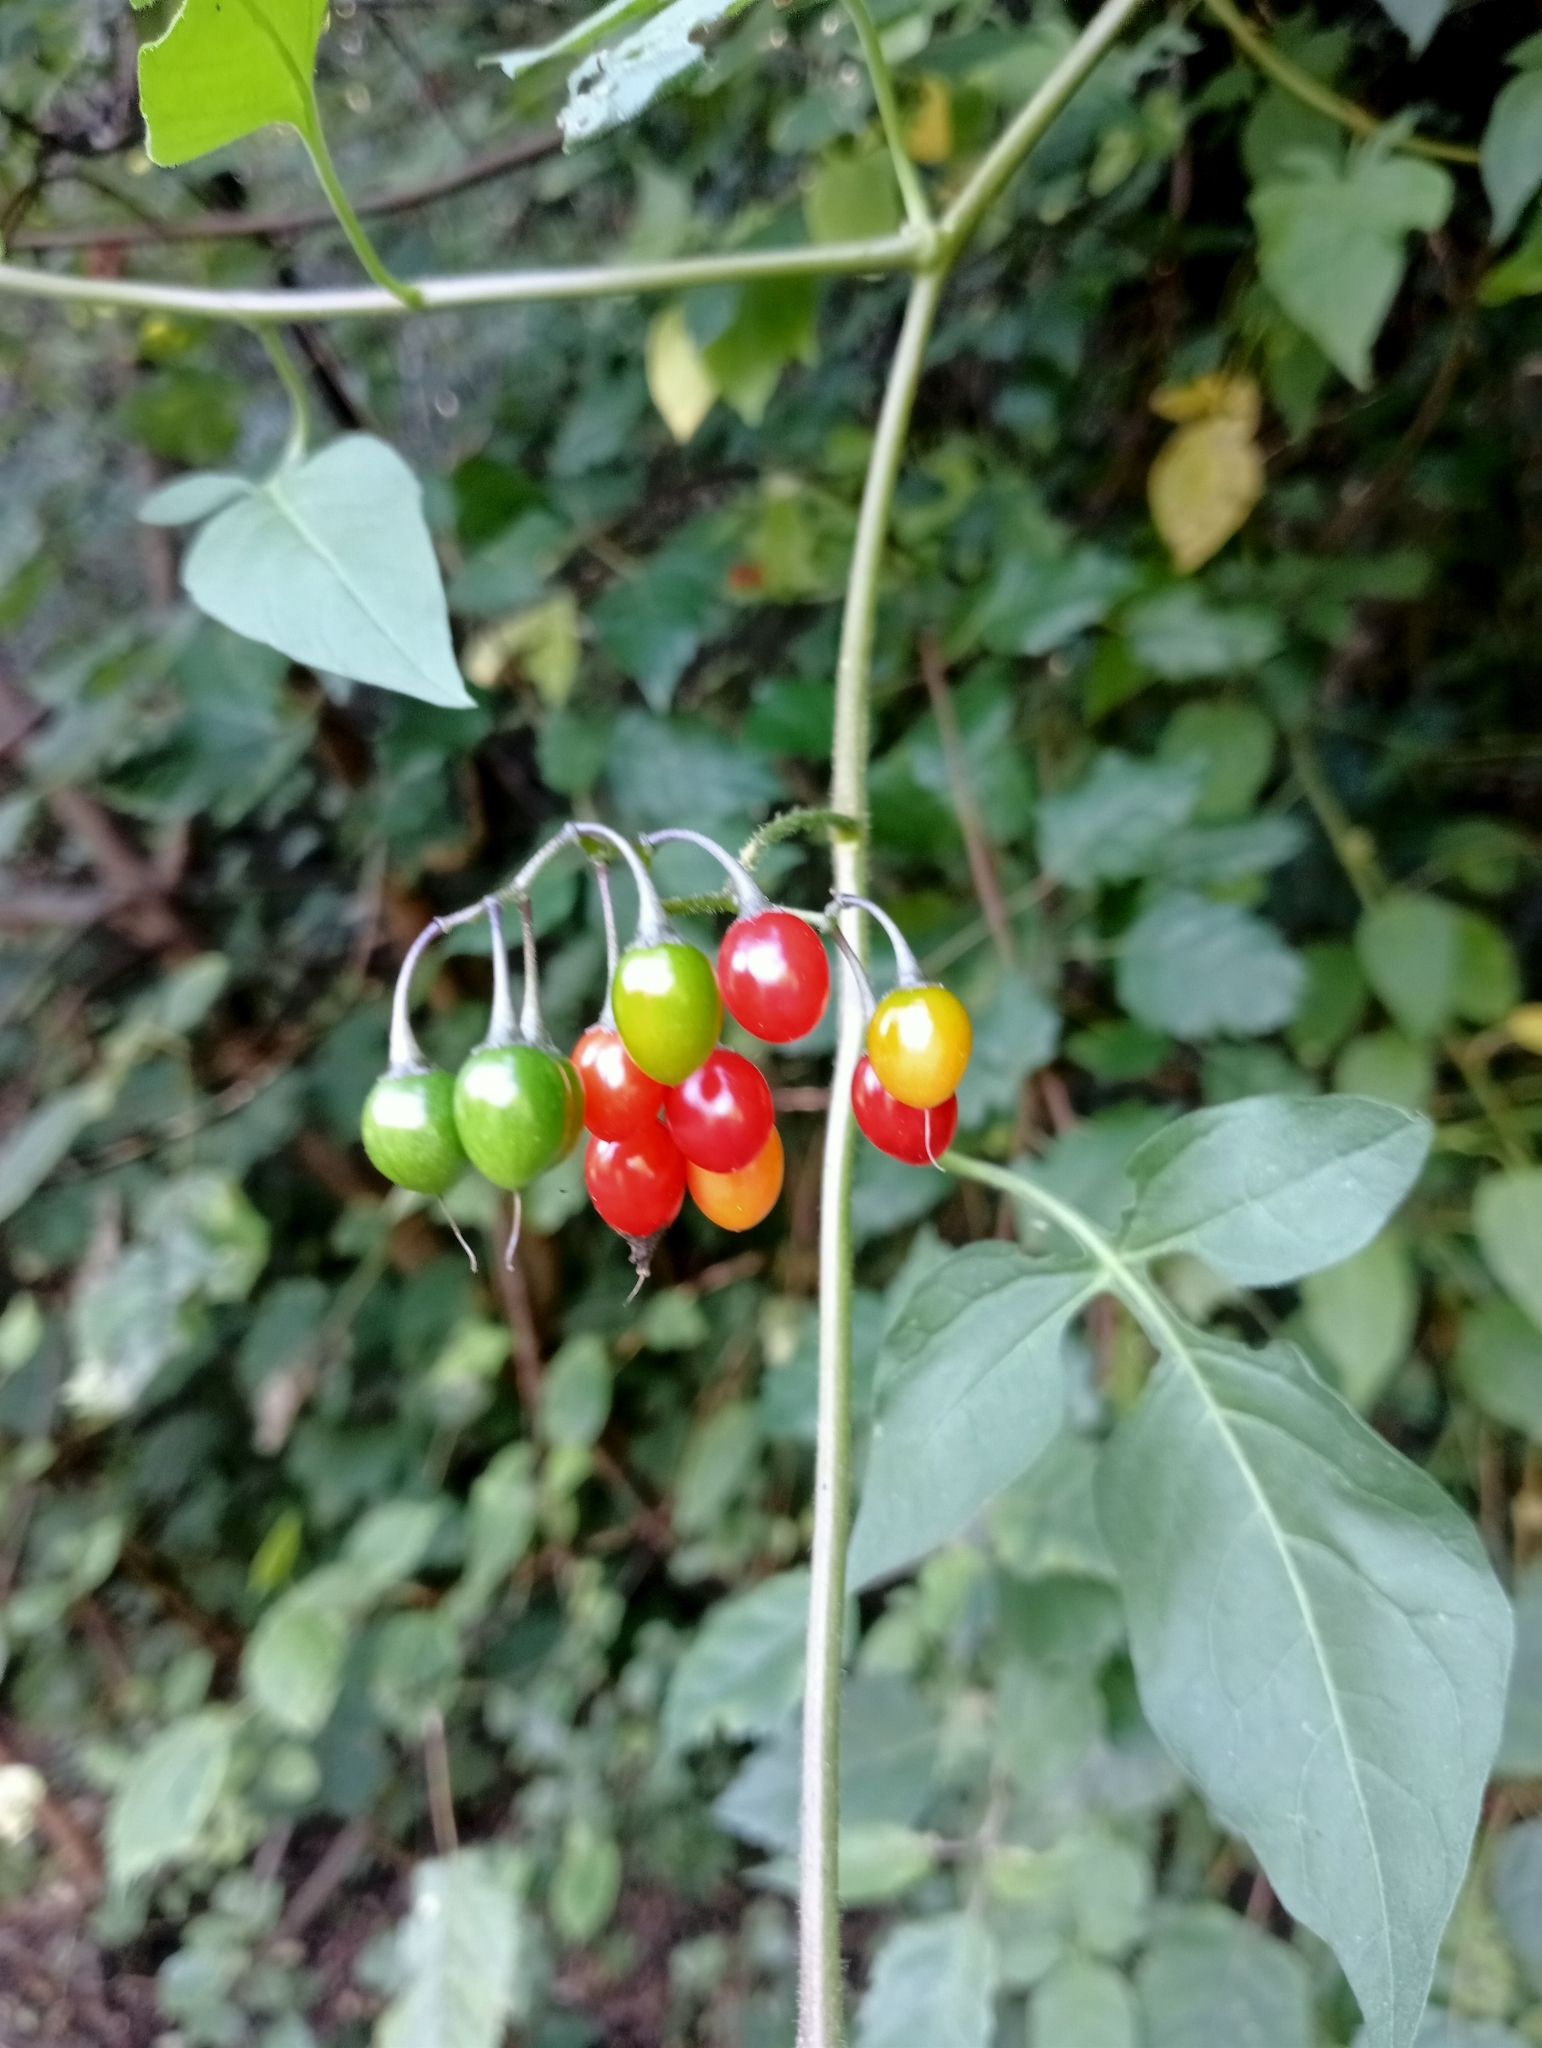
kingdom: Plantae
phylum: Tracheophyta
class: Magnoliopsida
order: Solanales
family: Solanaceae
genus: Solanum
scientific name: Solanum dulcamara
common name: Climbing nightshade
